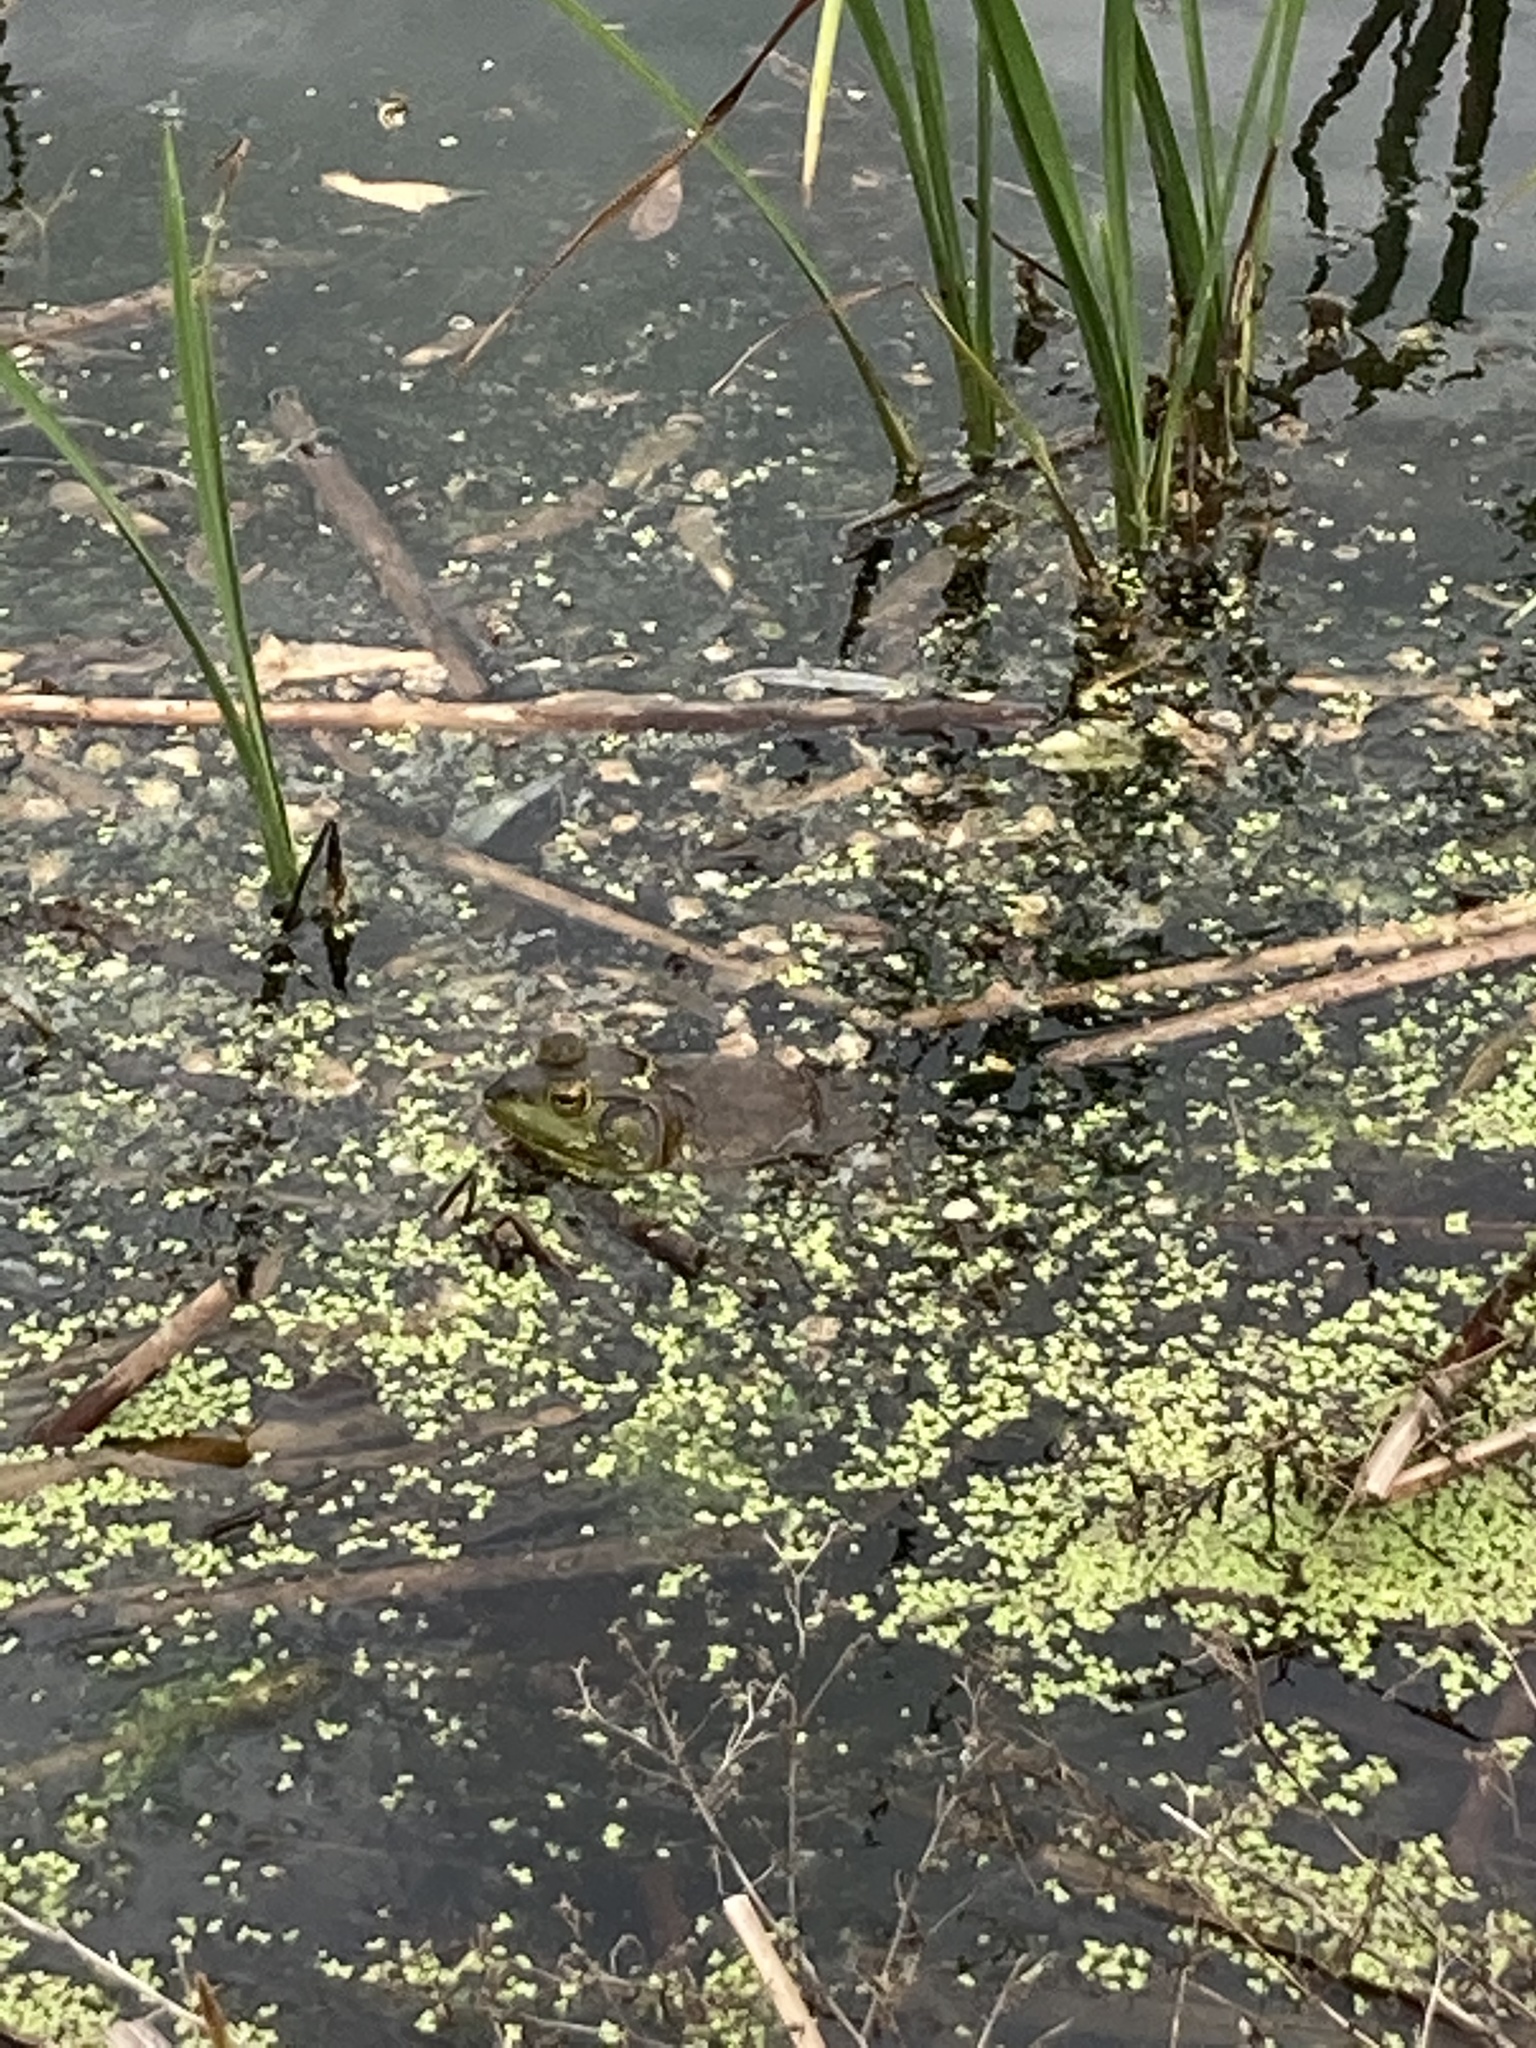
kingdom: Animalia
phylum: Chordata
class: Amphibia
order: Anura
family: Ranidae
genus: Lithobates
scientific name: Lithobates catesbeianus
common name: American bullfrog
